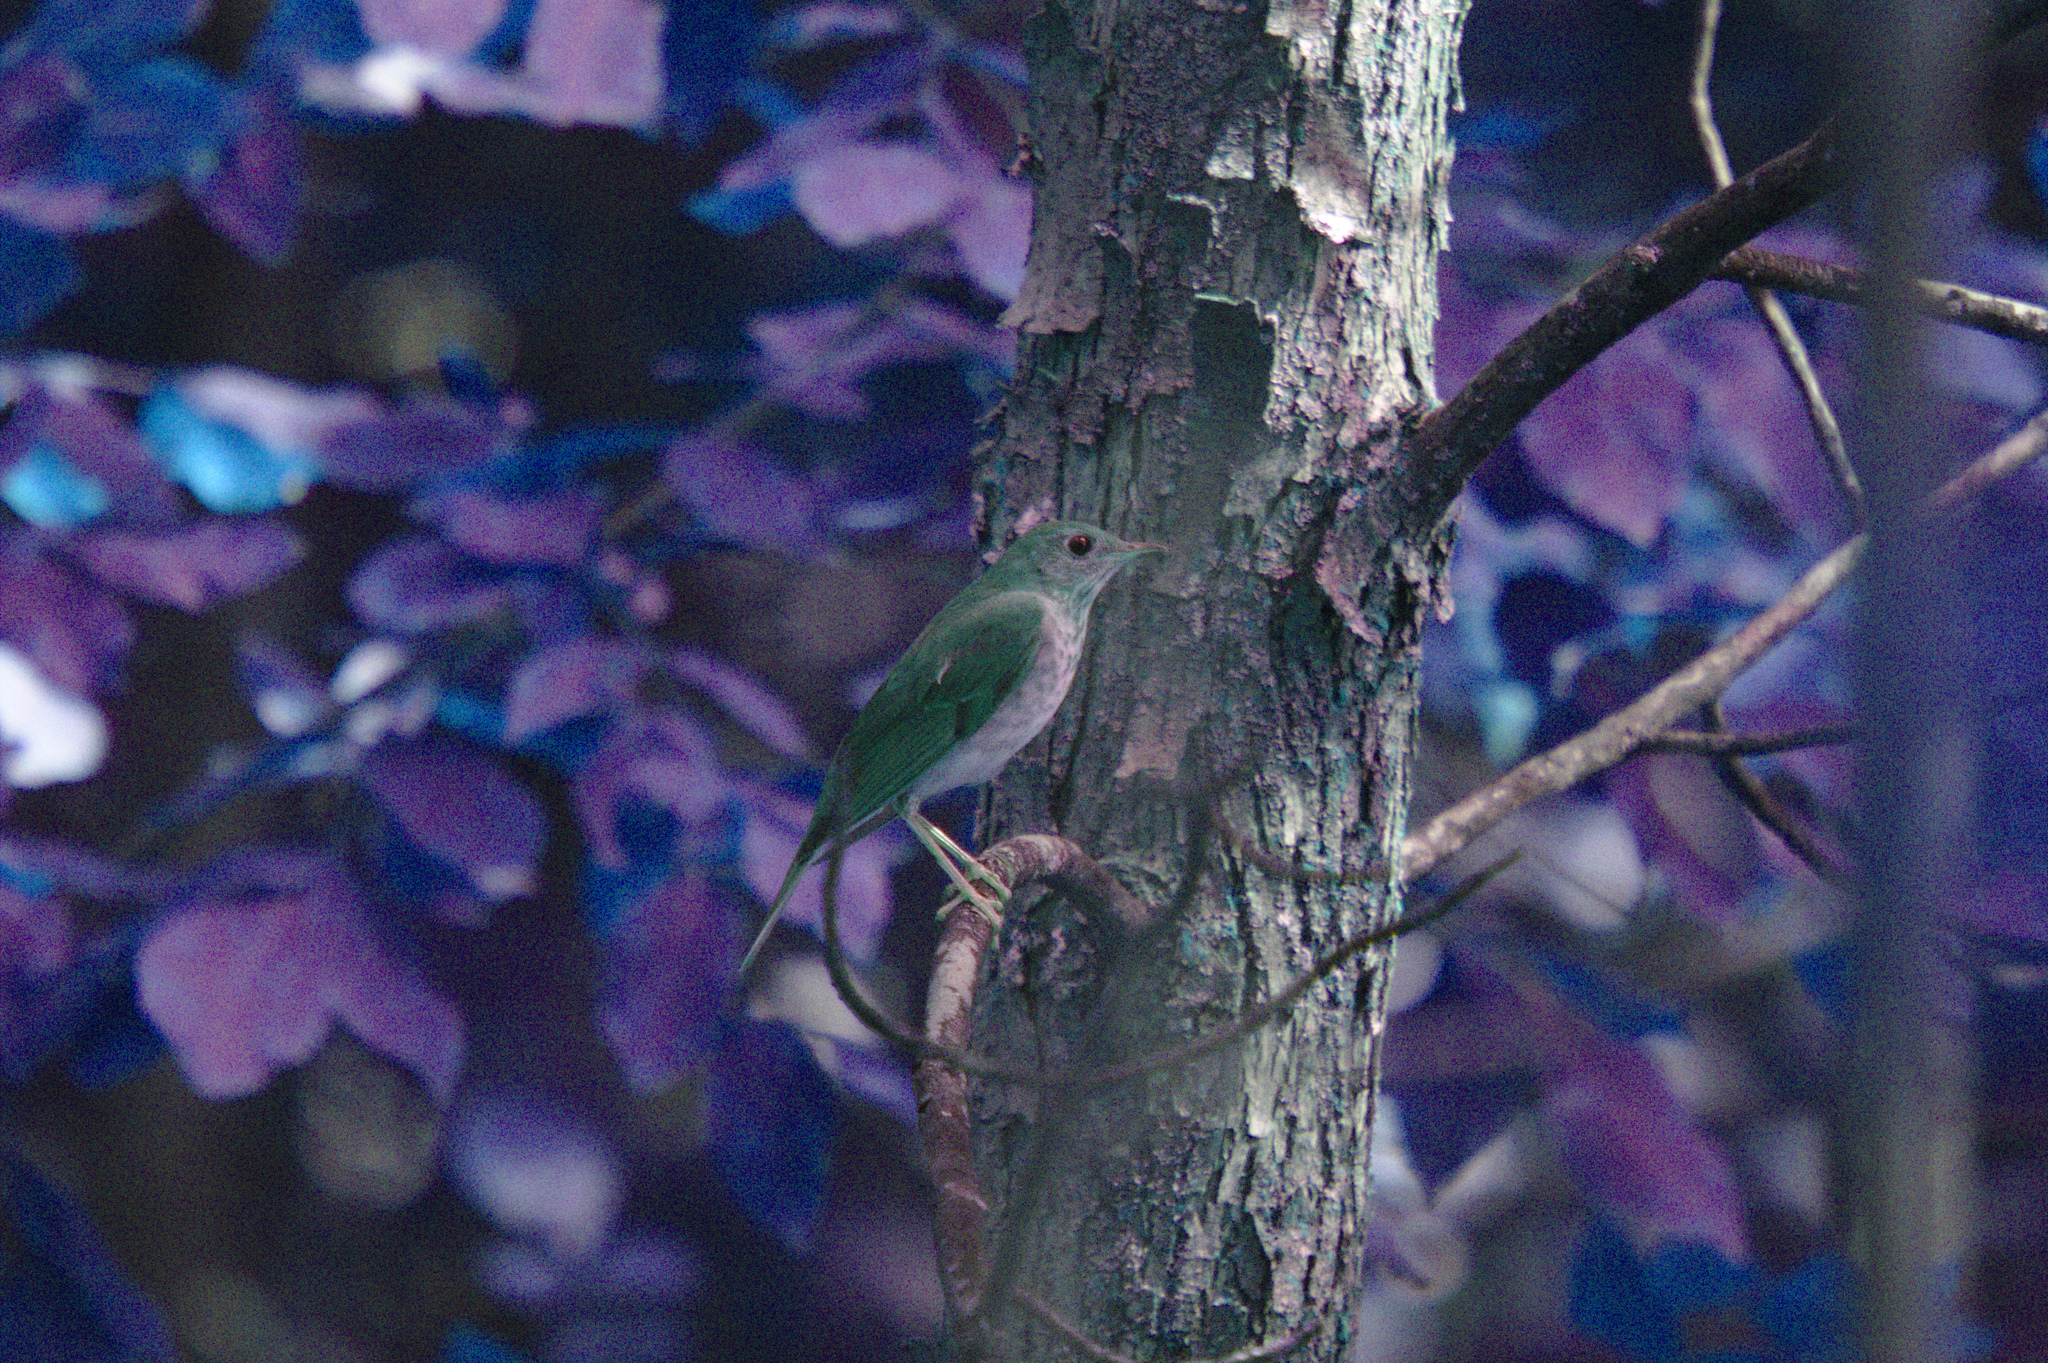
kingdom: Animalia
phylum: Chordata
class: Aves
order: Passeriformes
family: Turdidae
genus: Catharus
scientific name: Catharus fuscescens
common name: Veery
